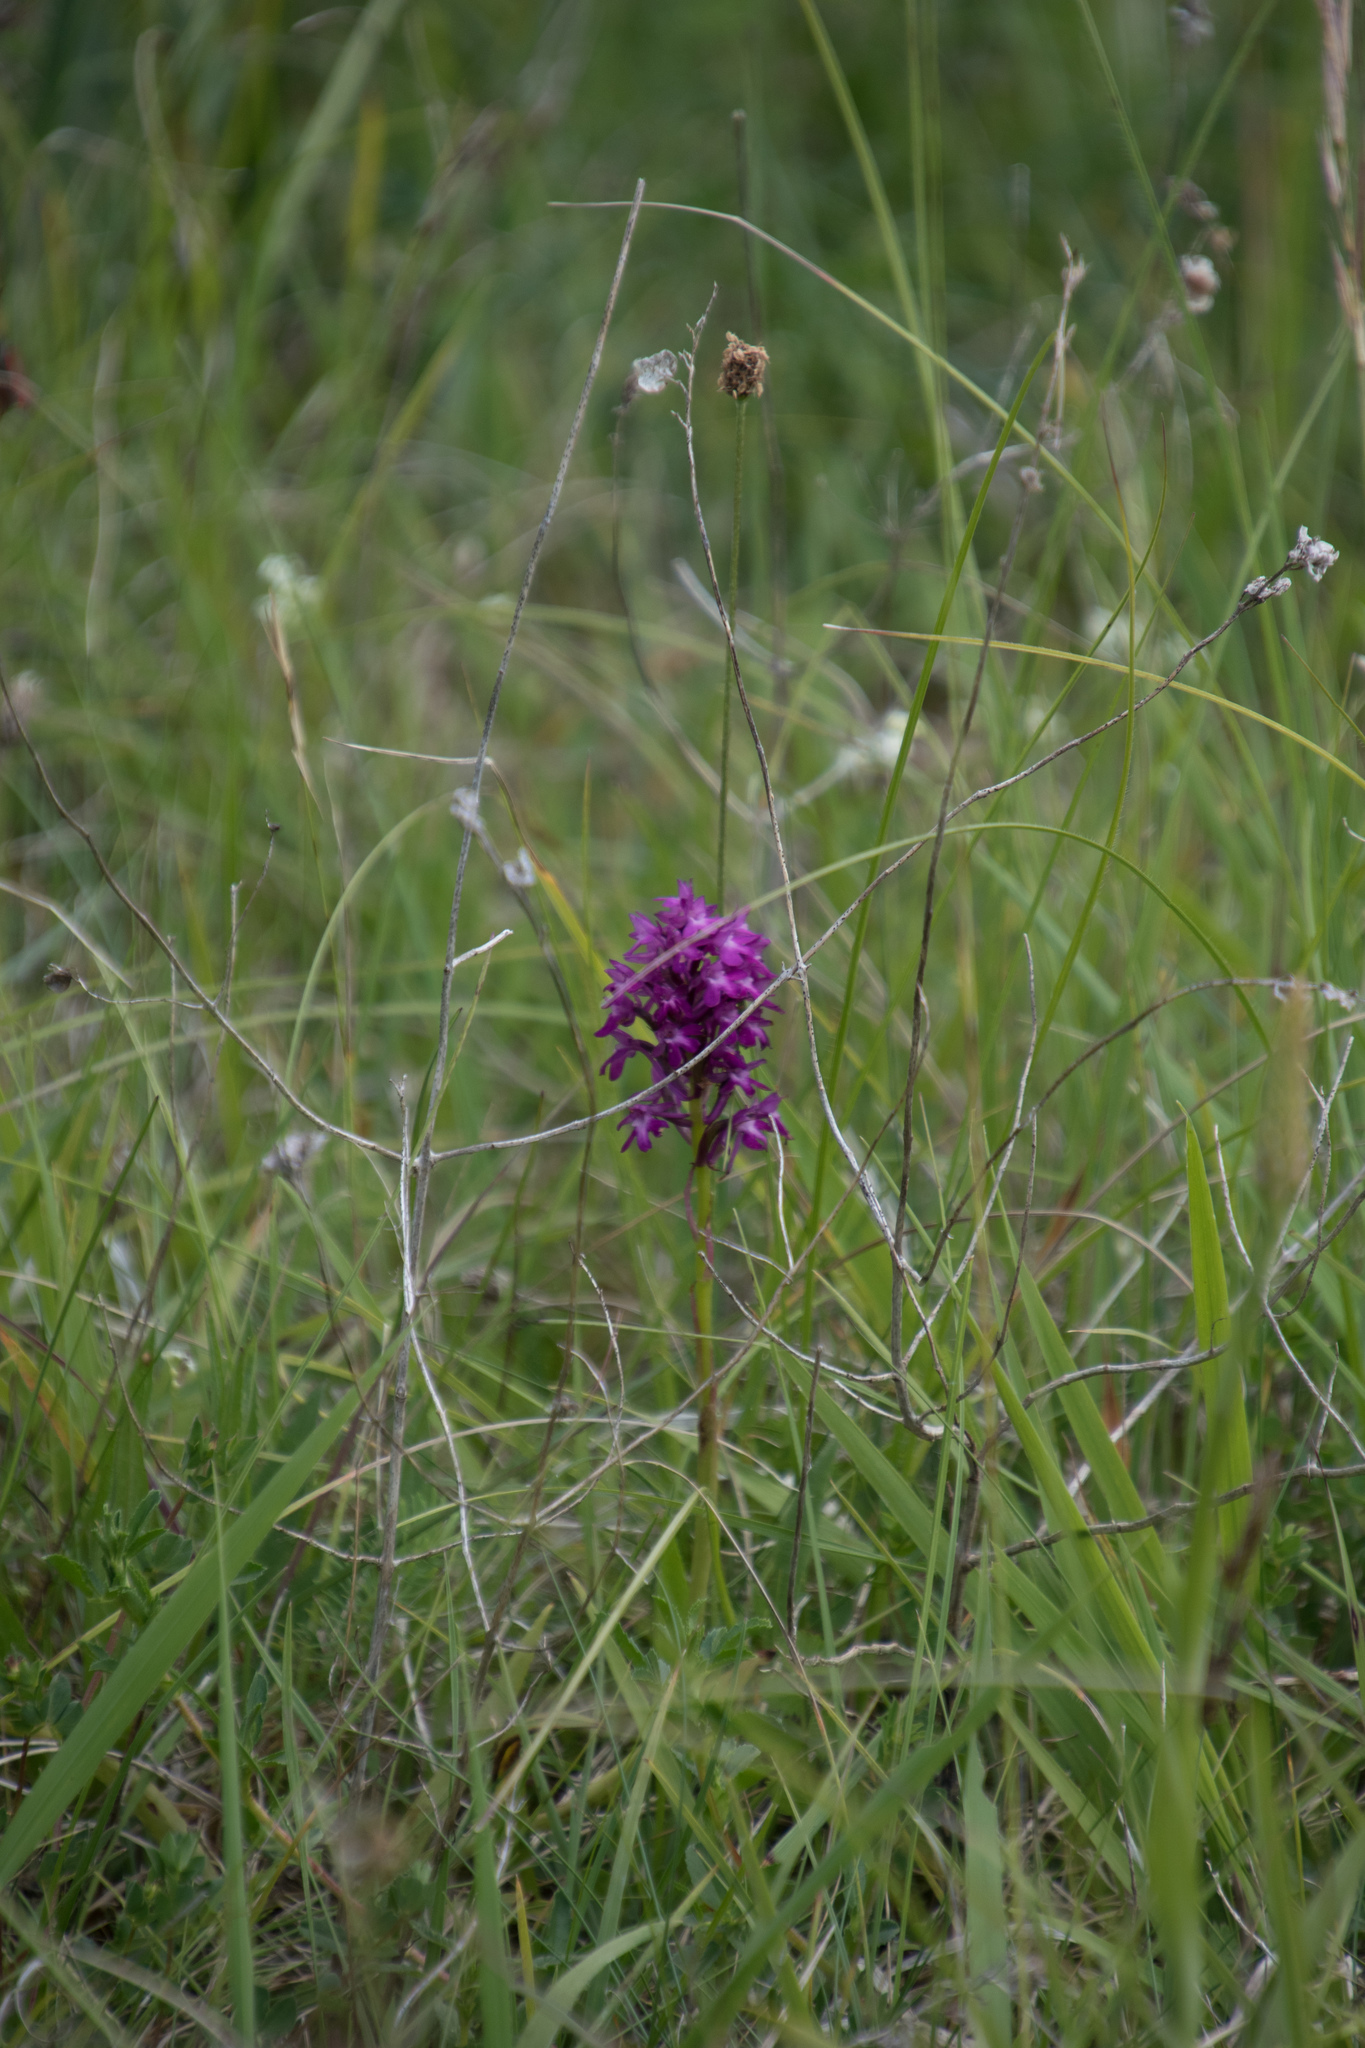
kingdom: Plantae
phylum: Tracheophyta
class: Liliopsida
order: Asparagales
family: Orchidaceae
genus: Anacamptis
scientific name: Anacamptis pyramidalis
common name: Pyramidal orchid
